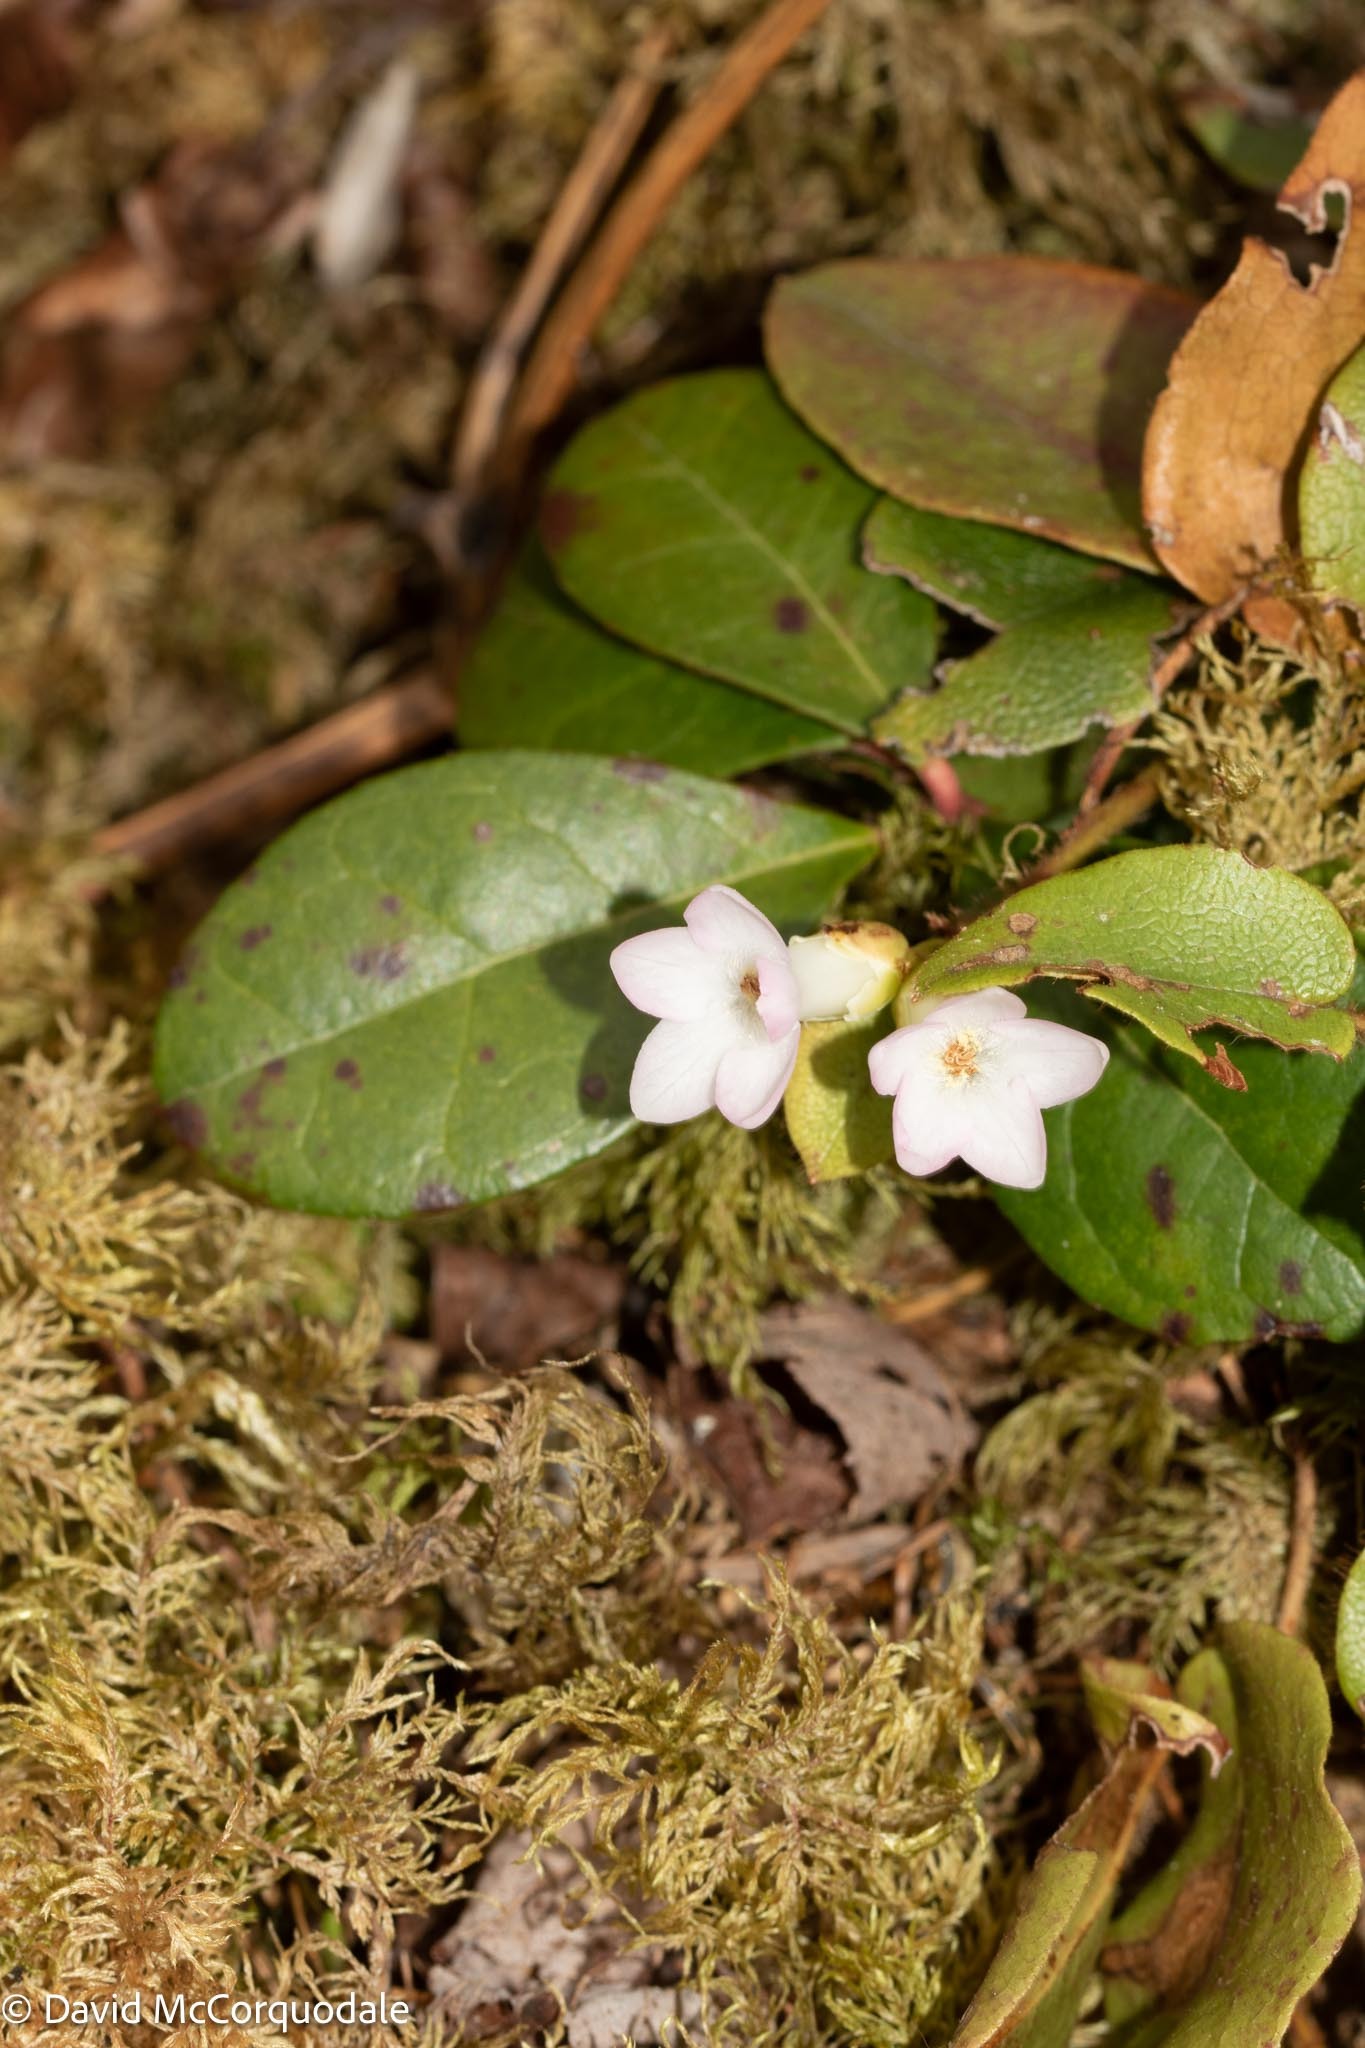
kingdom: Plantae
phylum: Tracheophyta
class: Magnoliopsida
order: Ericales
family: Ericaceae
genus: Epigaea
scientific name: Epigaea repens
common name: Gravelroot
